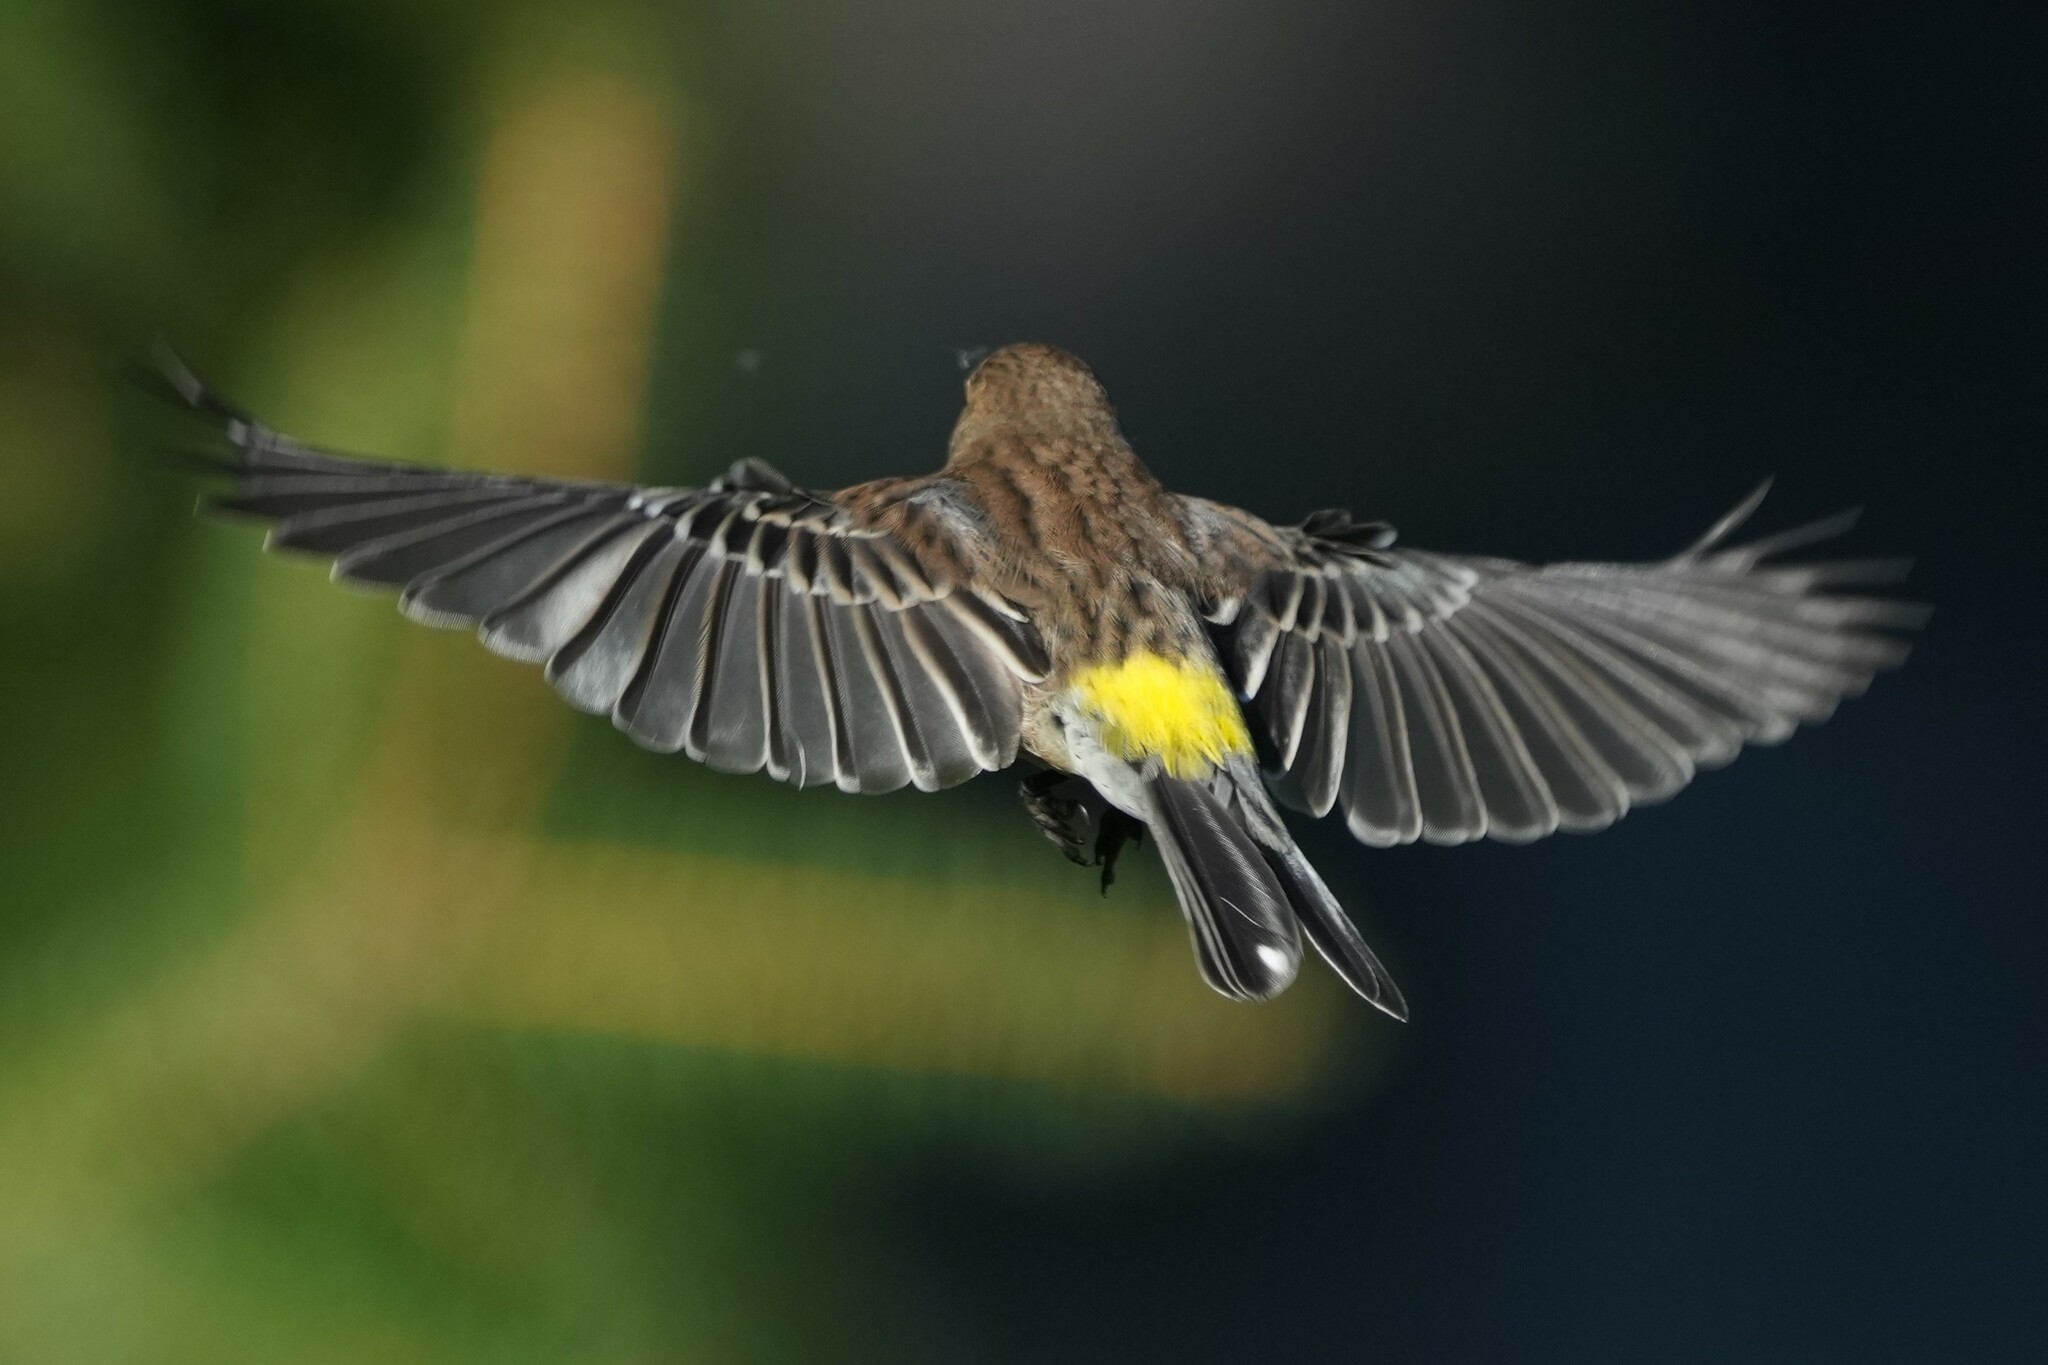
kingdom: Animalia
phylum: Chordata
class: Aves
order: Passeriformes
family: Parulidae
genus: Setophaga
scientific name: Setophaga coronata
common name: Myrtle warbler
